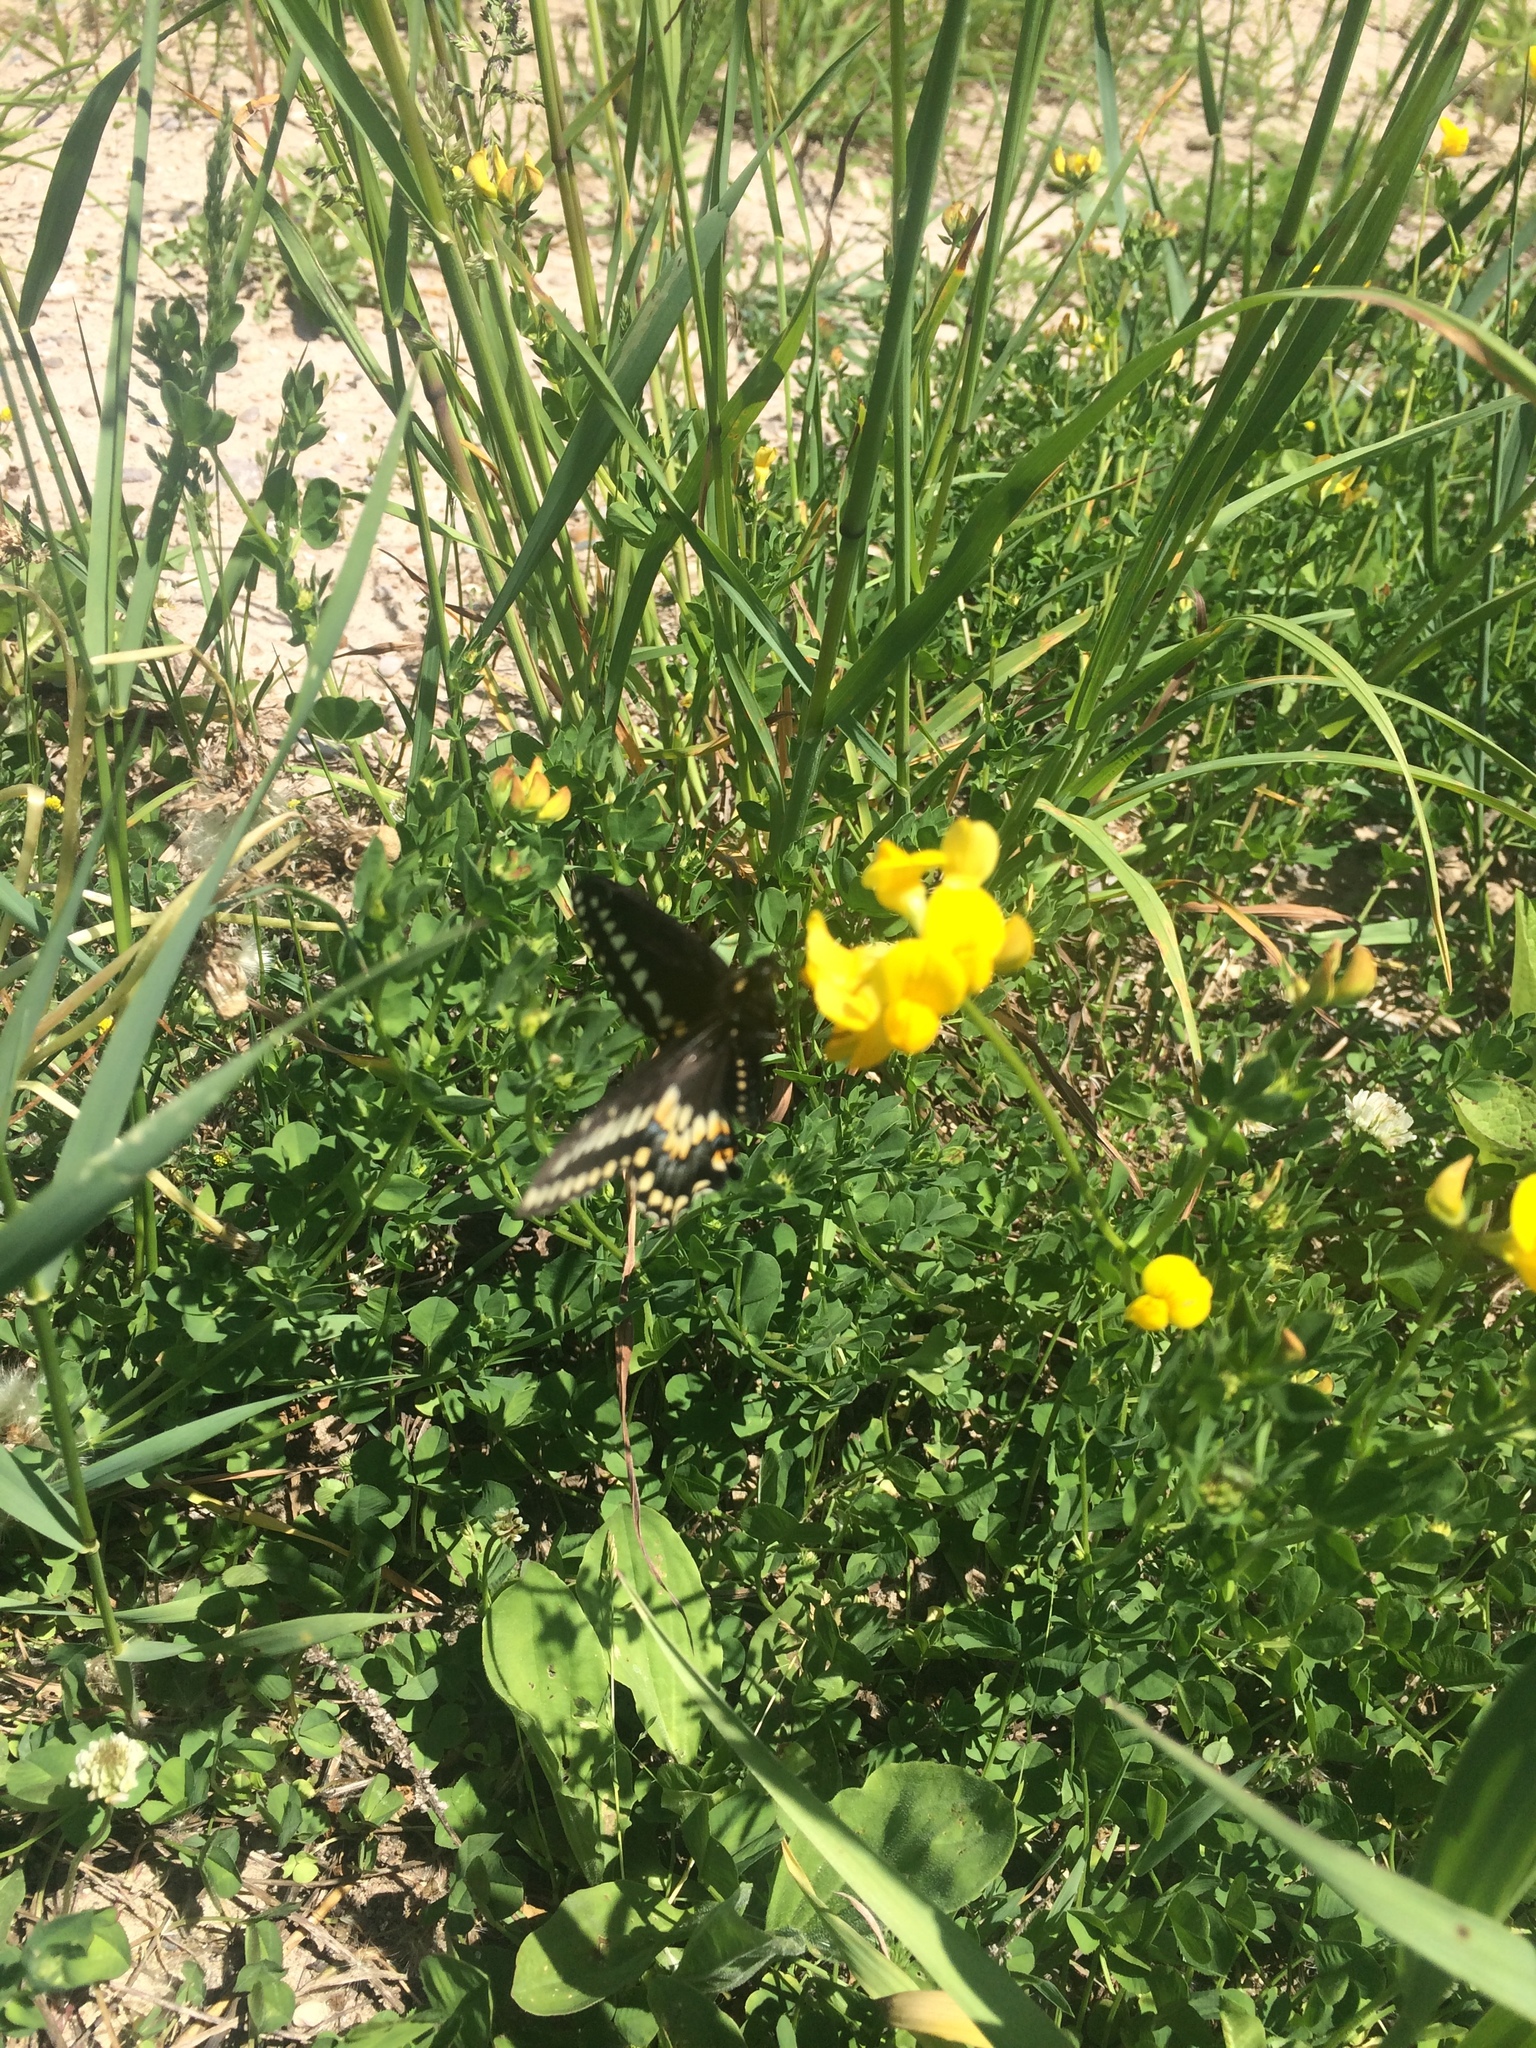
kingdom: Animalia
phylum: Arthropoda
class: Insecta
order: Lepidoptera
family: Papilionidae
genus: Papilio
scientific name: Papilio polyxenes
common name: Black swallowtail
